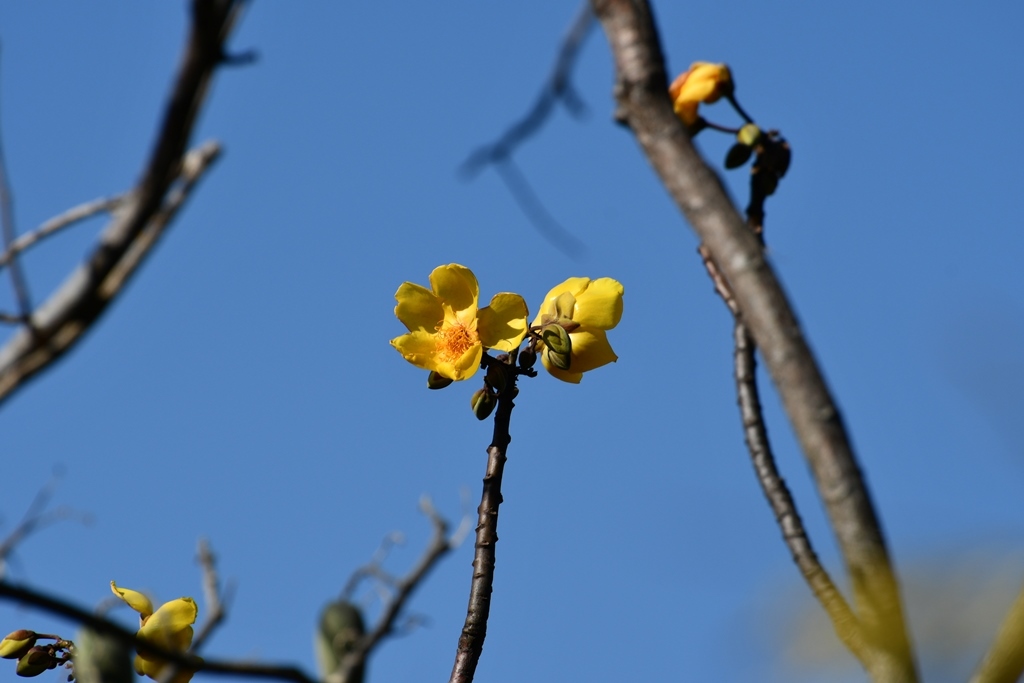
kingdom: Plantae
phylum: Tracheophyta
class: Magnoliopsida
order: Malvales
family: Cochlospermaceae
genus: Cochlospermum
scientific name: Cochlospermum vitifolium
